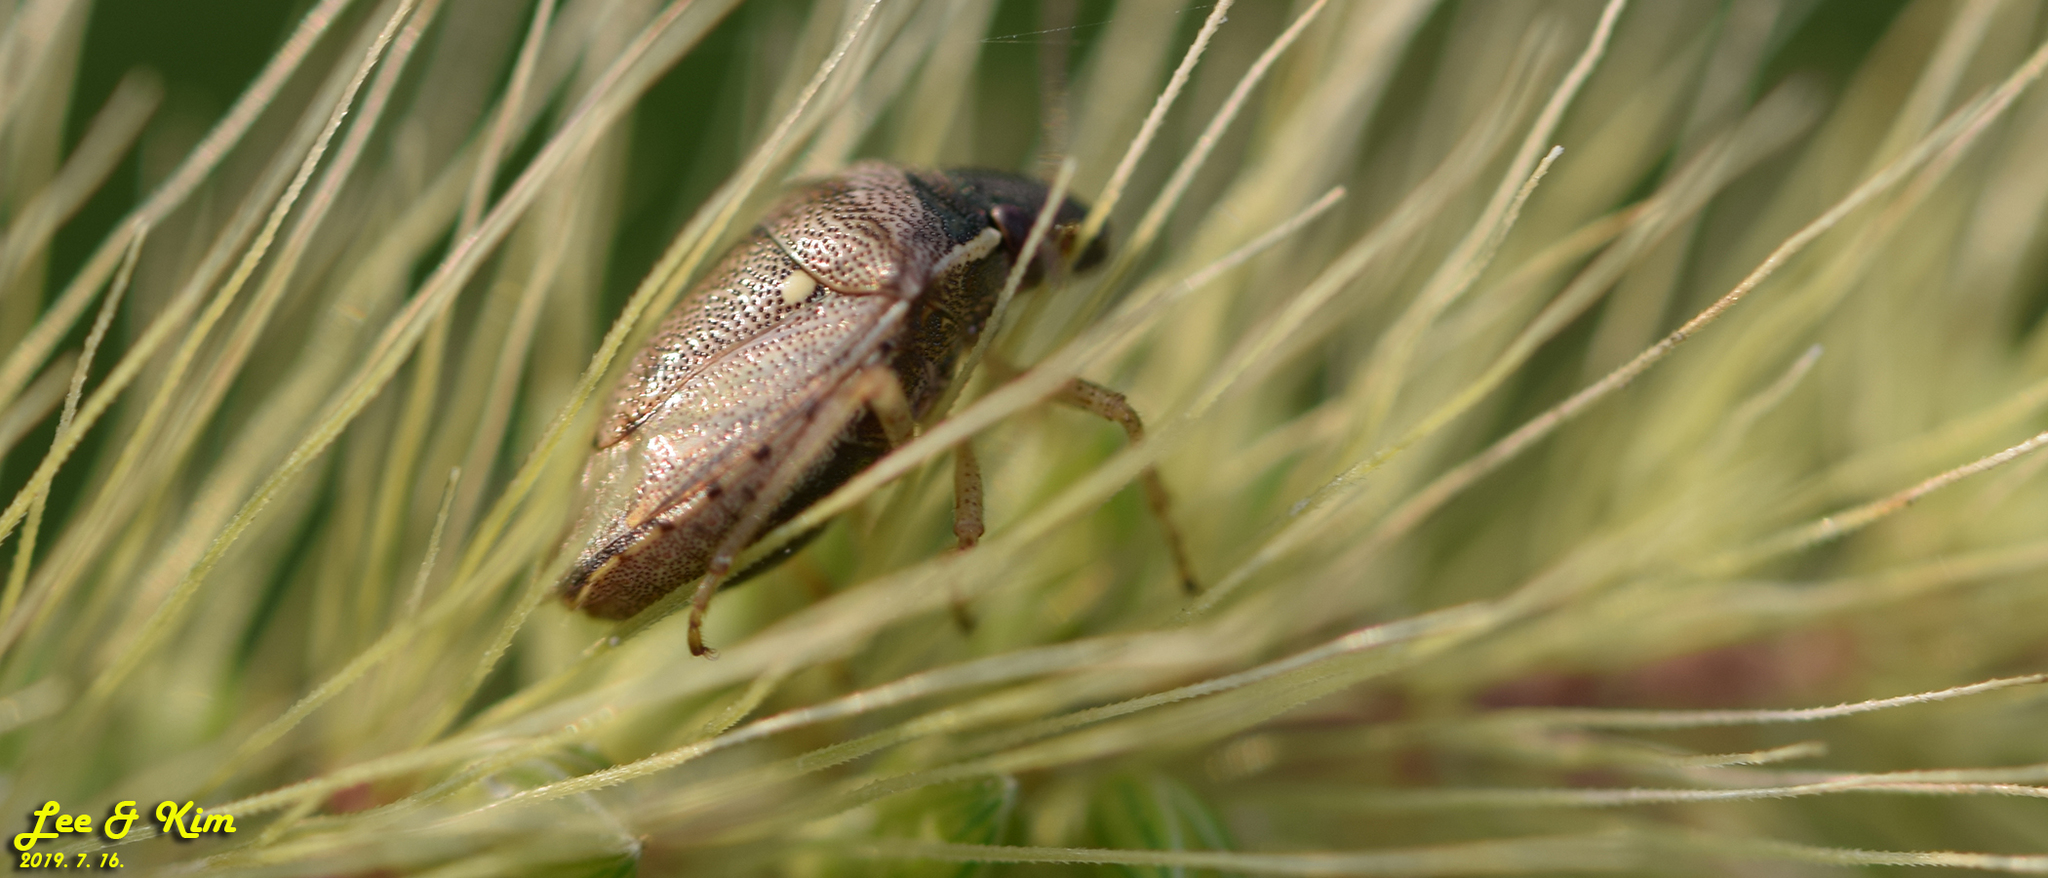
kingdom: Animalia
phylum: Arthropoda
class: Insecta
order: Hemiptera
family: Pentatomidae
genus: Eysarcoris
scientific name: Eysarcoris ventralis
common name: White-spotted stink bug
